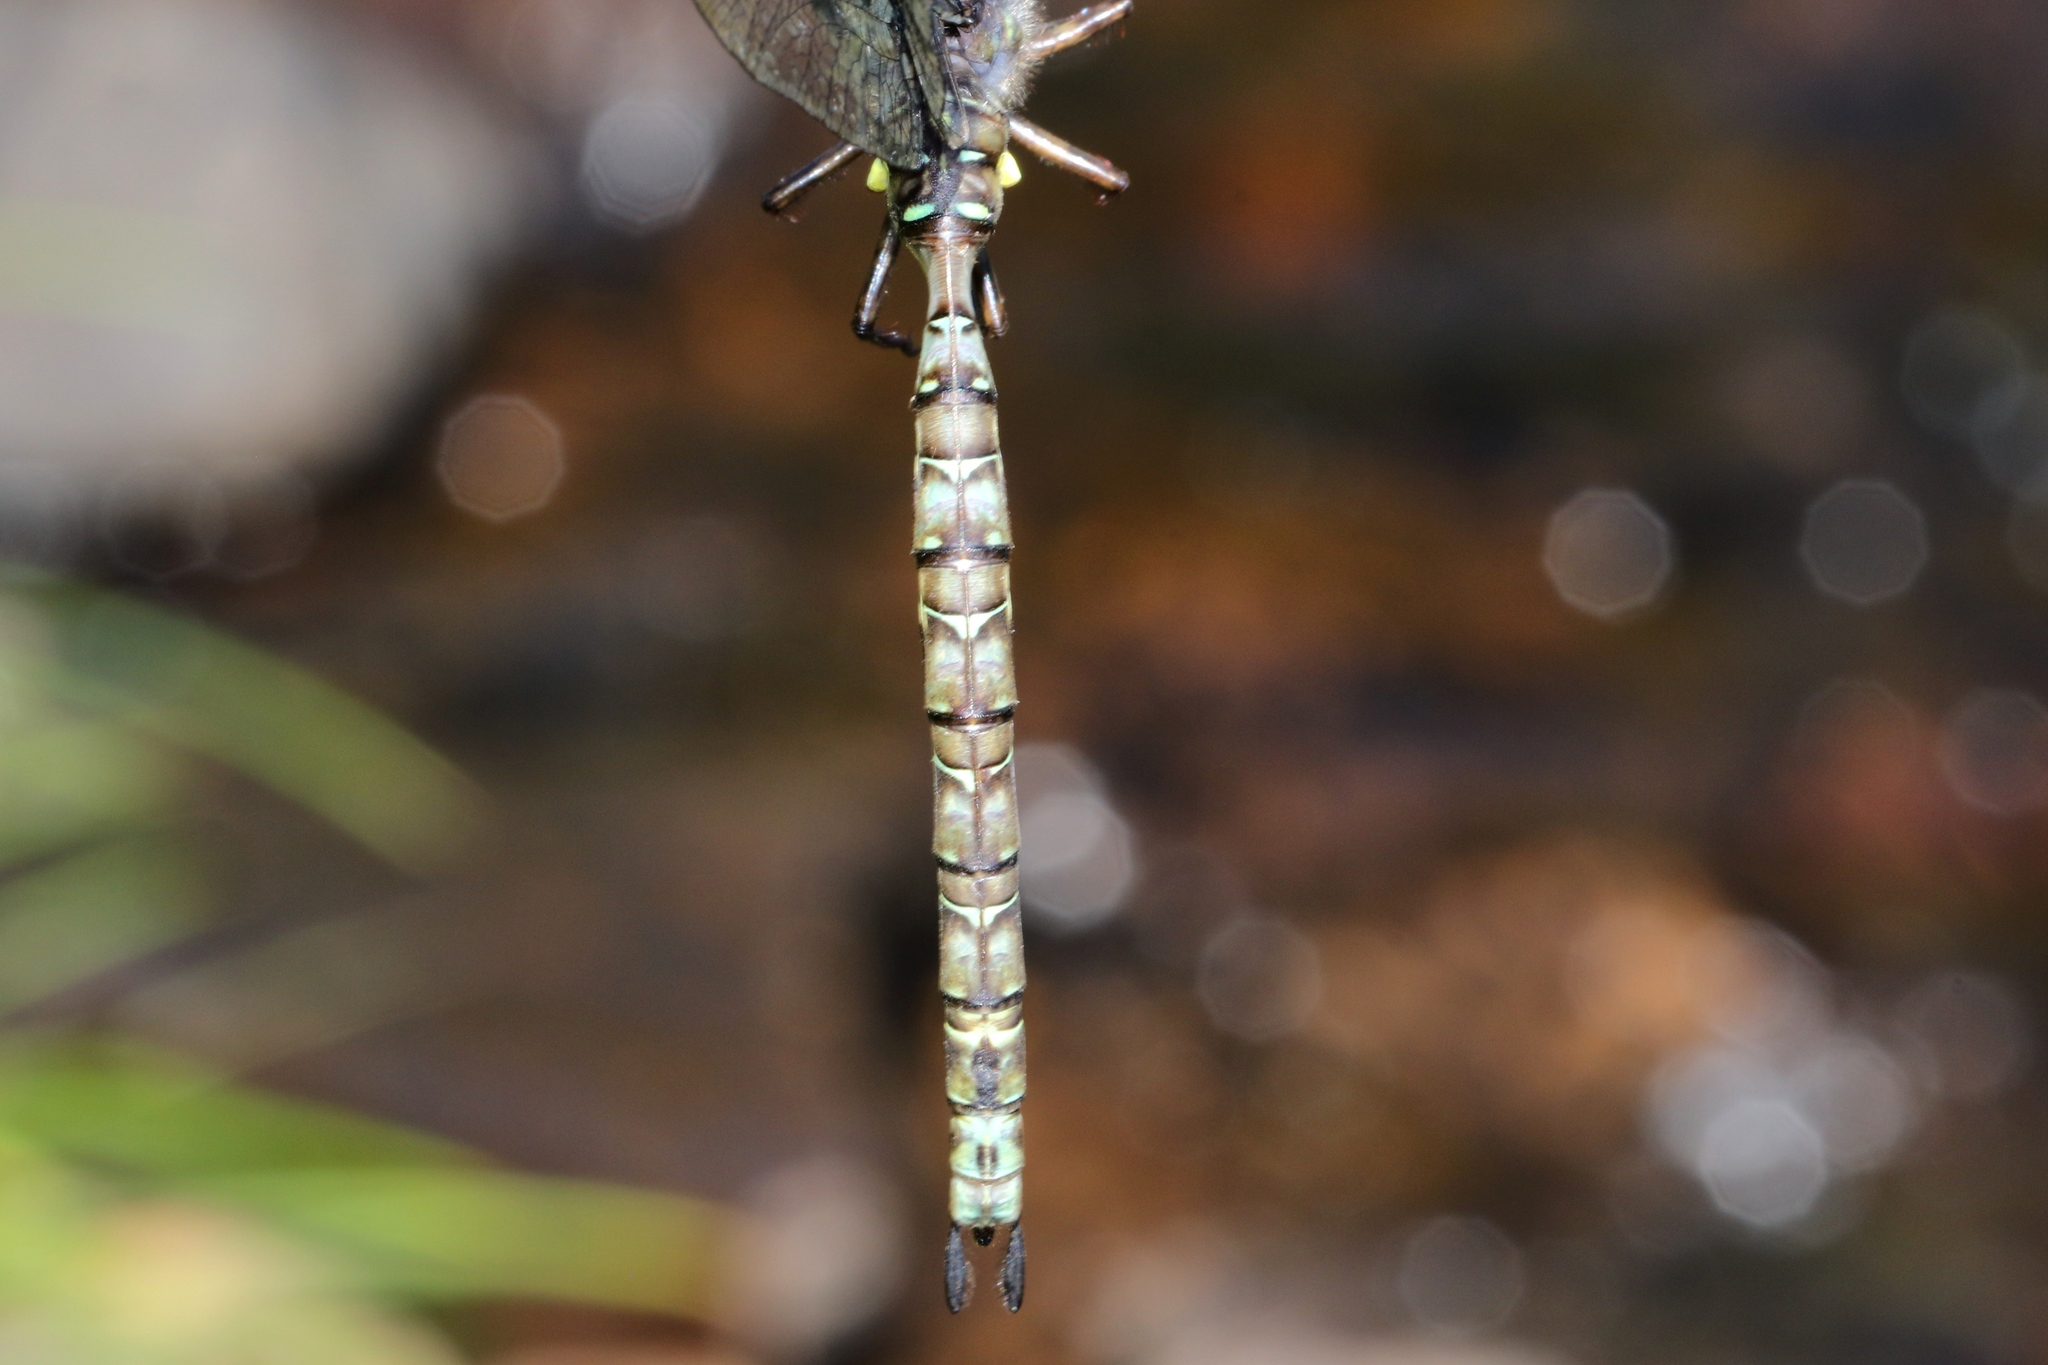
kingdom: Animalia
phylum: Arthropoda
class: Insecta
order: Odonata
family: Aeshnidae
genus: Boyeria
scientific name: Boyeria grafiana
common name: Ocellated darner
